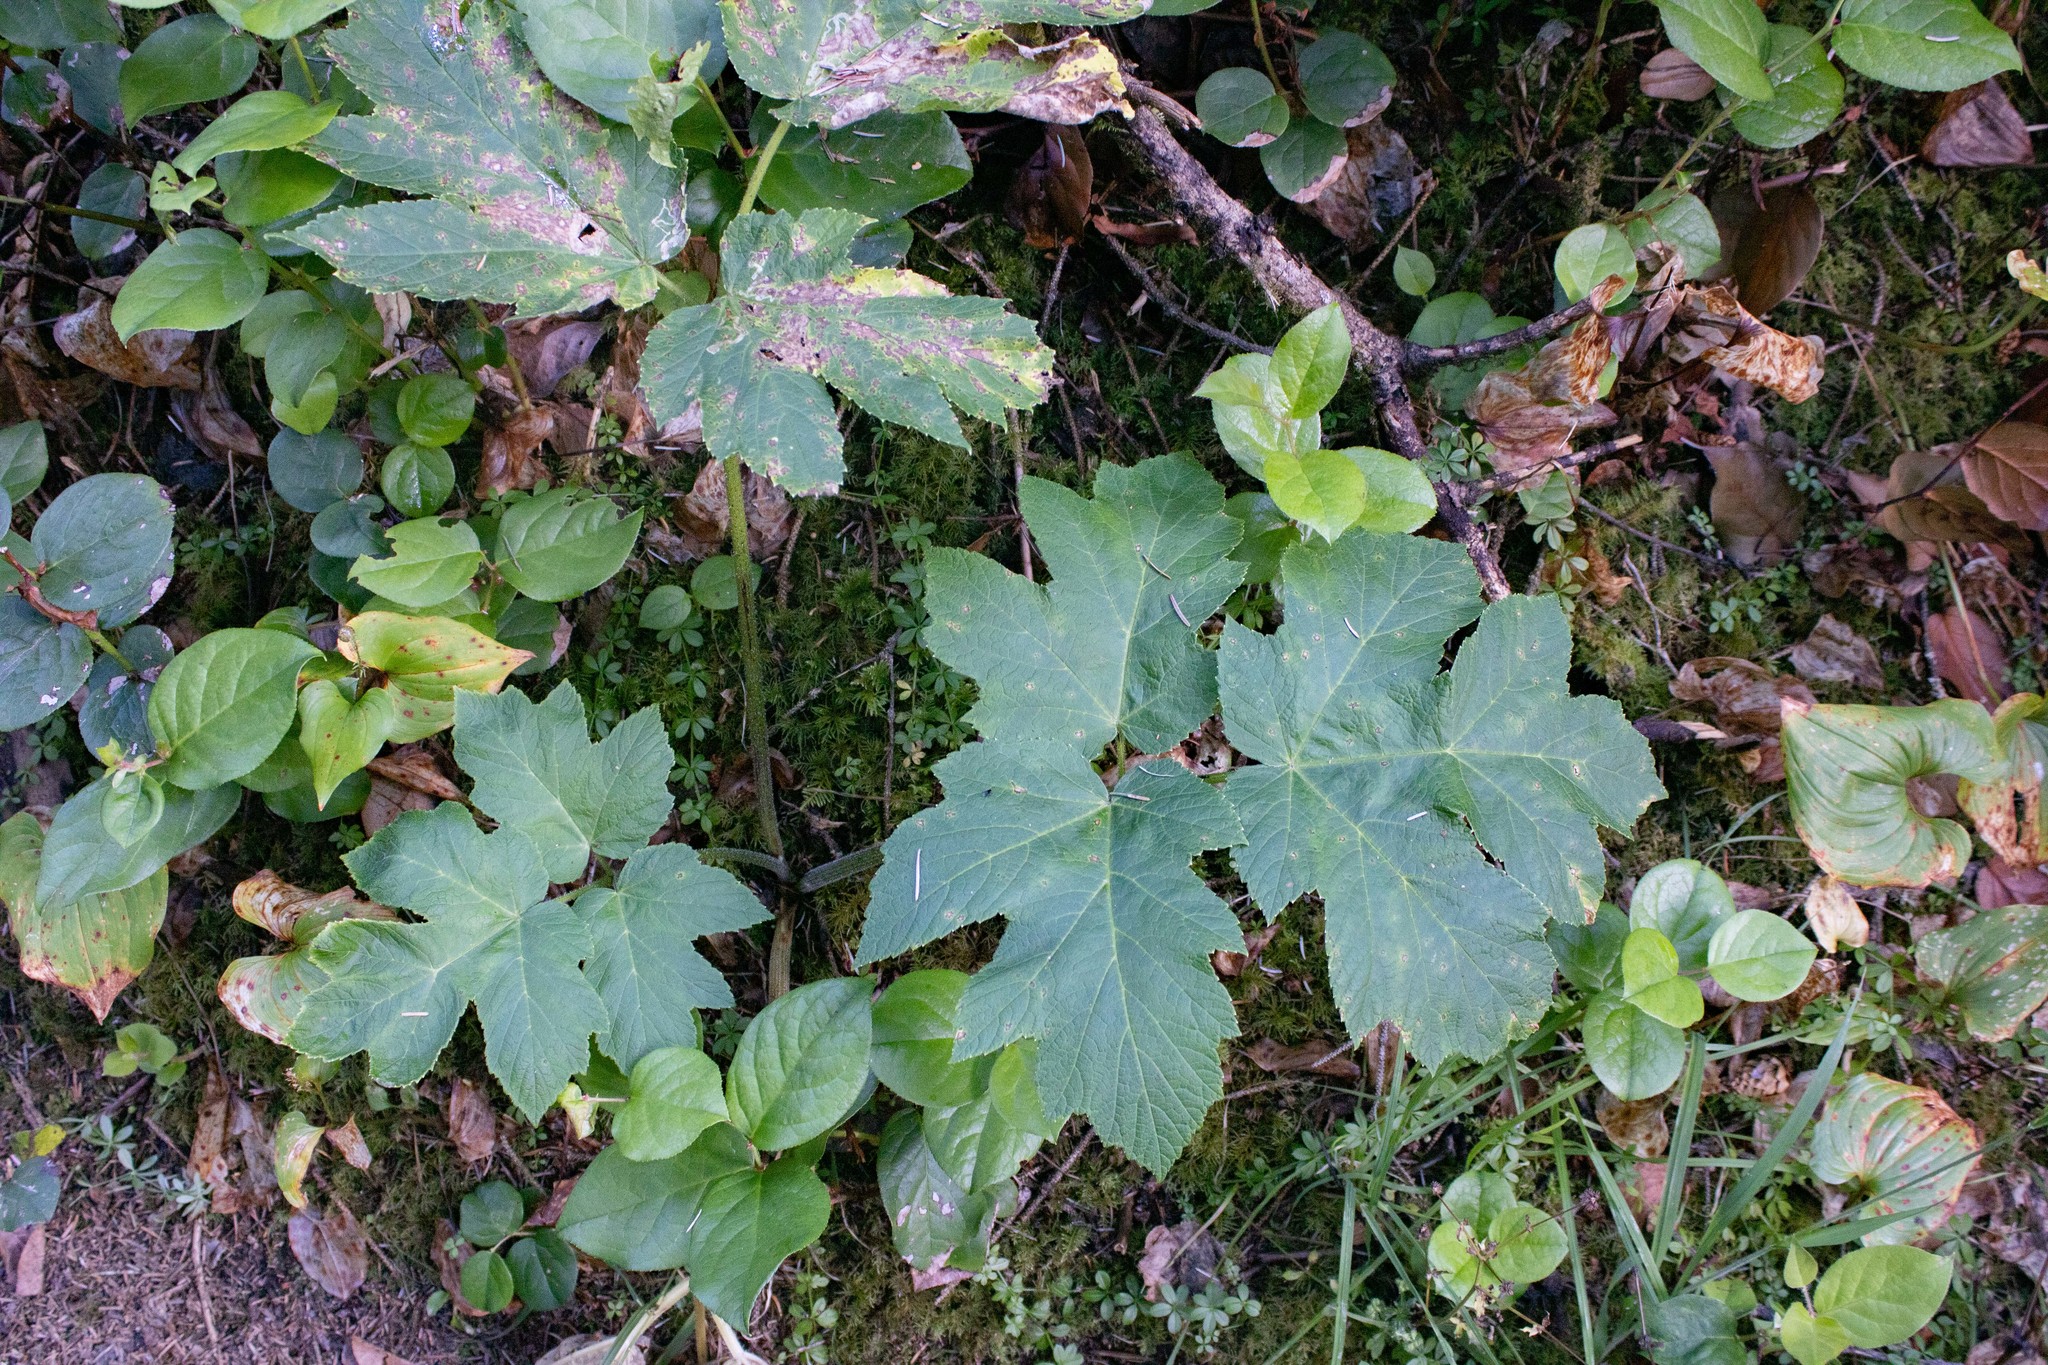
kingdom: Plantae
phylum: Tracheophyta
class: Magnoliopsida
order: Apiales
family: Apiaceae
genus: Heracleum
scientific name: Heracleum maximum
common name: American cow parsnip
